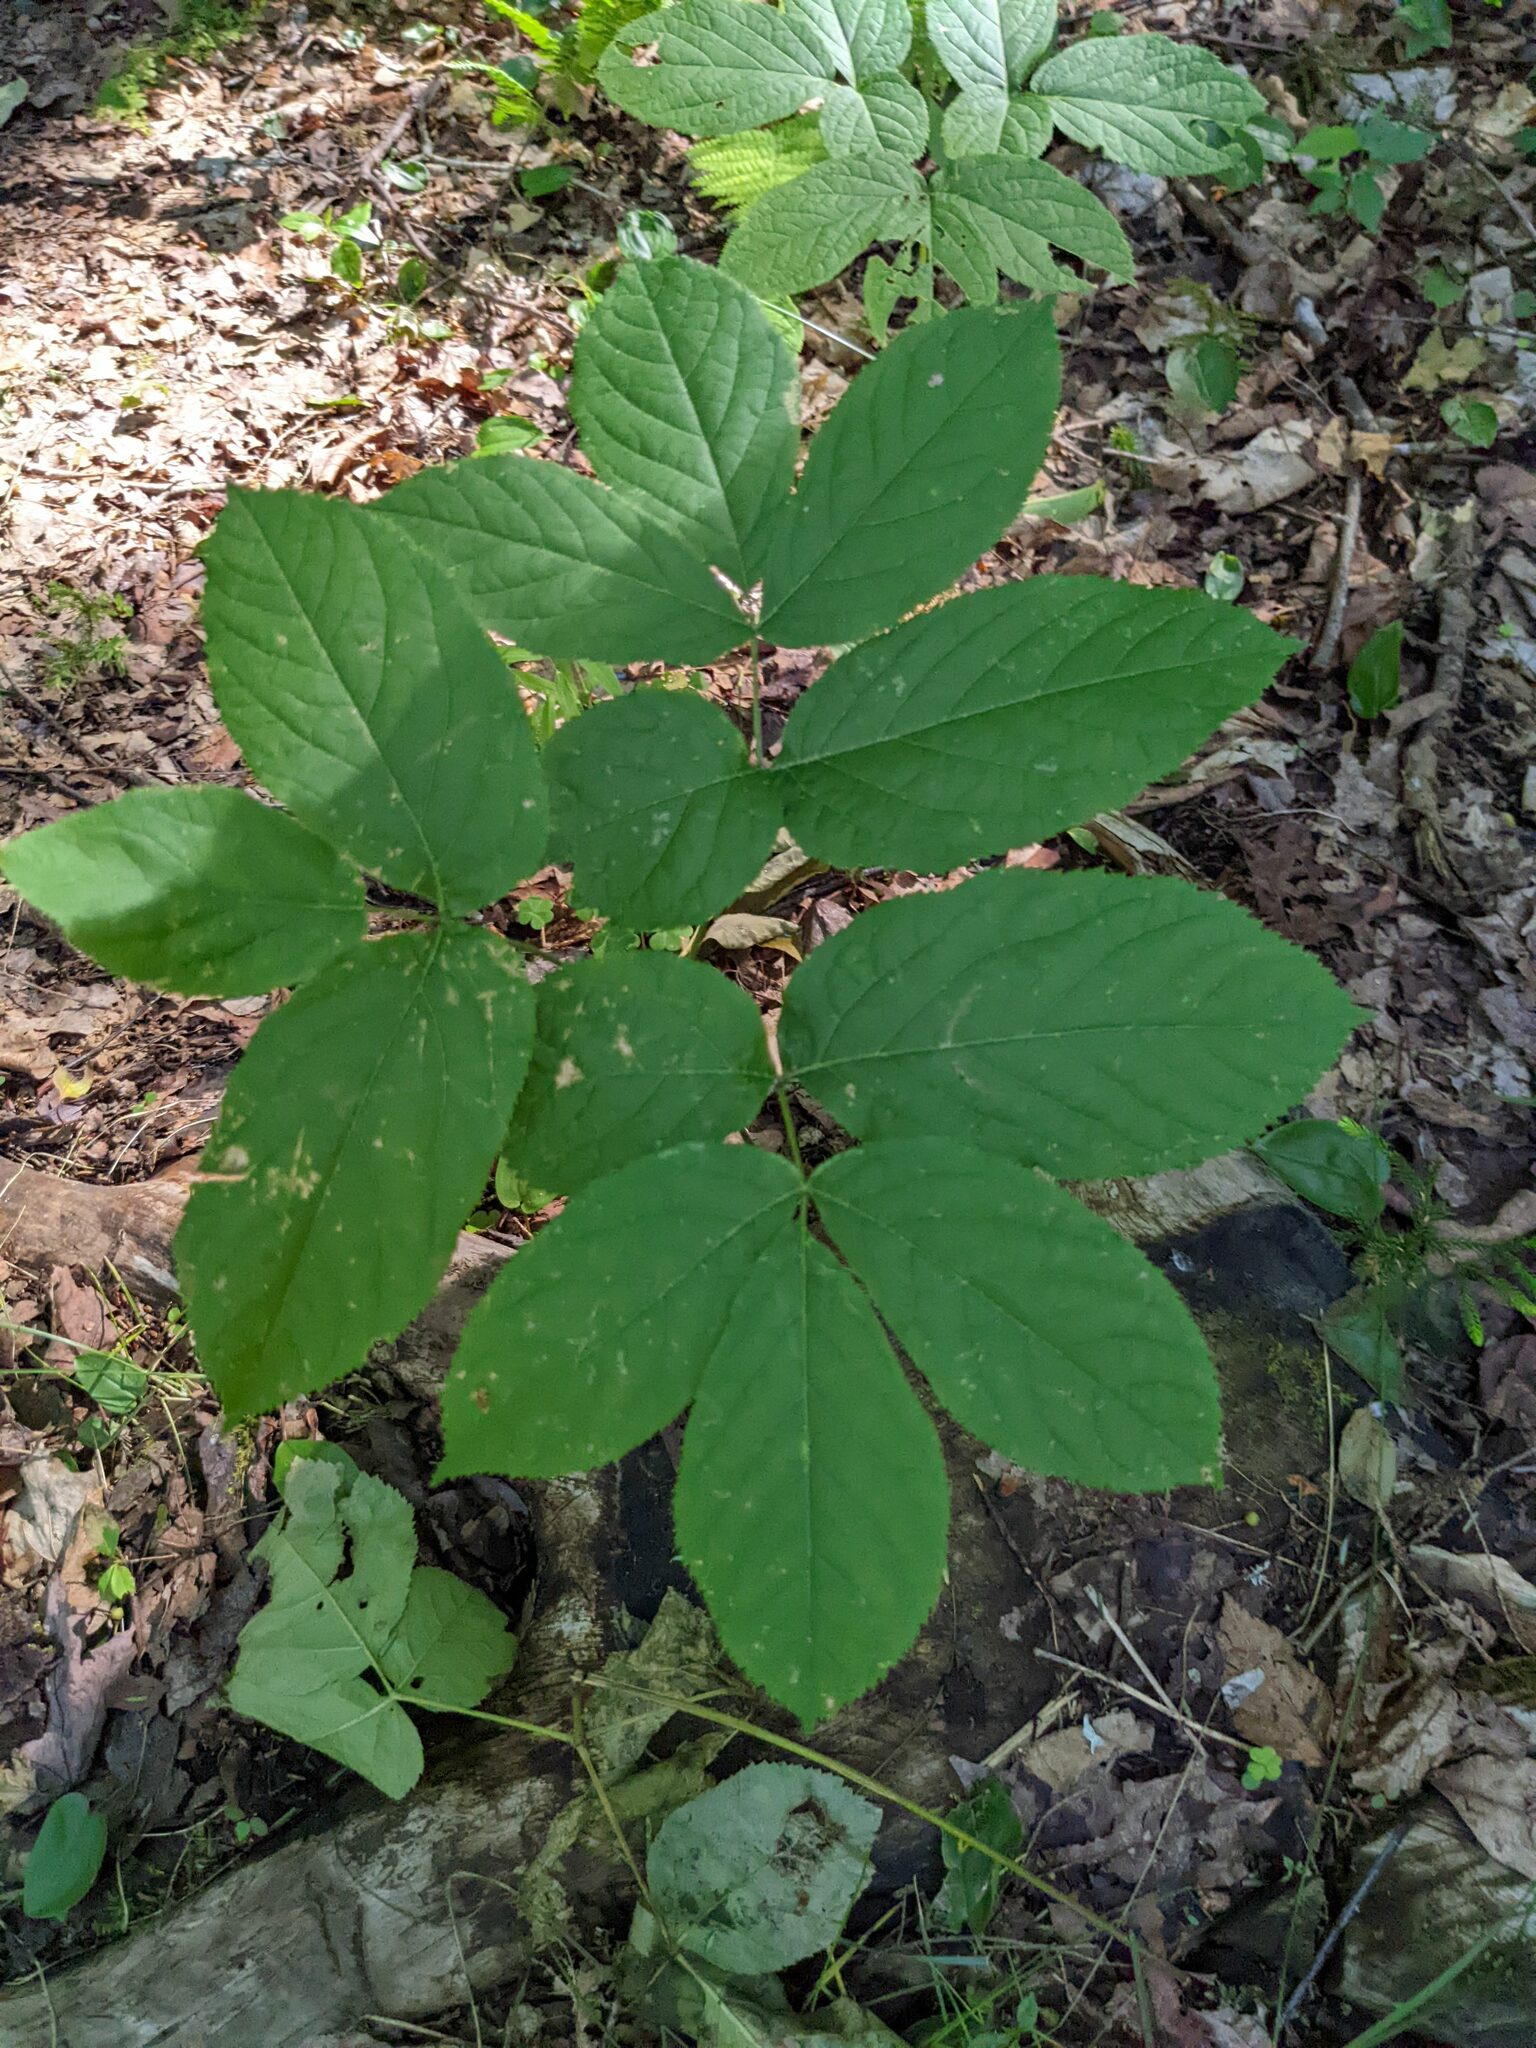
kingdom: Plantae
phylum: Tracheophyta
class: Magnoliopsida
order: Apiales
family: Araliaceae
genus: Aralia
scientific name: Aralia nudicaulis
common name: Wild sarsaparilla
